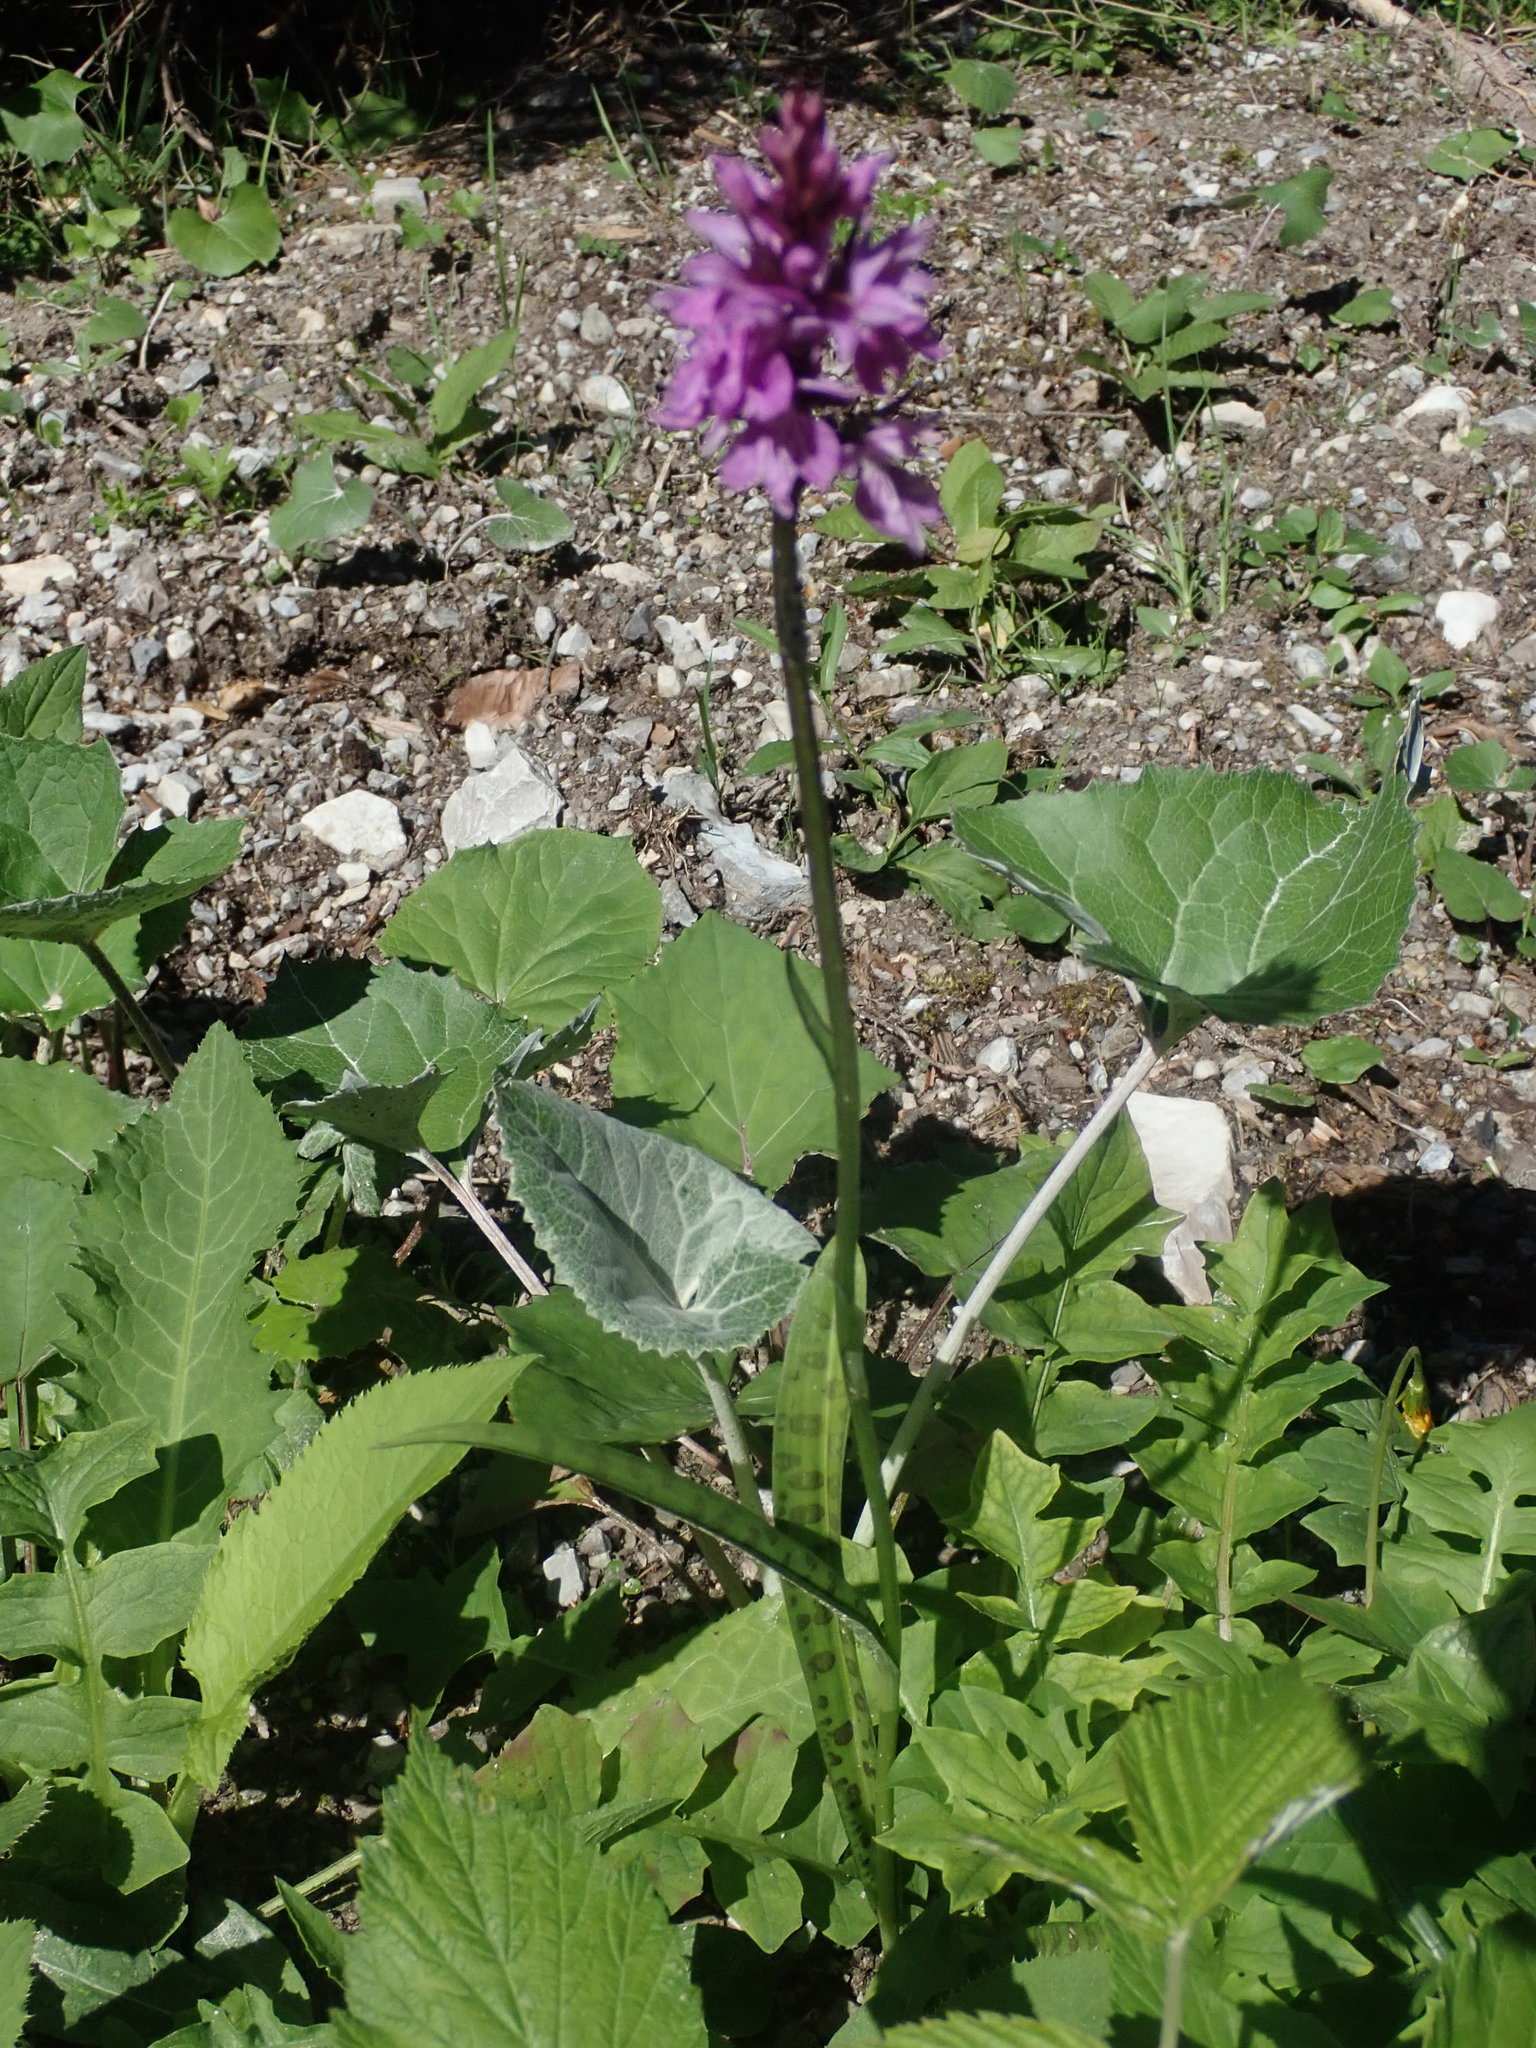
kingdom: Plantae
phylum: Tracheophyta
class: Liliopsida
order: Asparagales
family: Orchidaceae
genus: Dactylorhiza
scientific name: Dactylorhiza maculata
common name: Heath spotted-orchid
